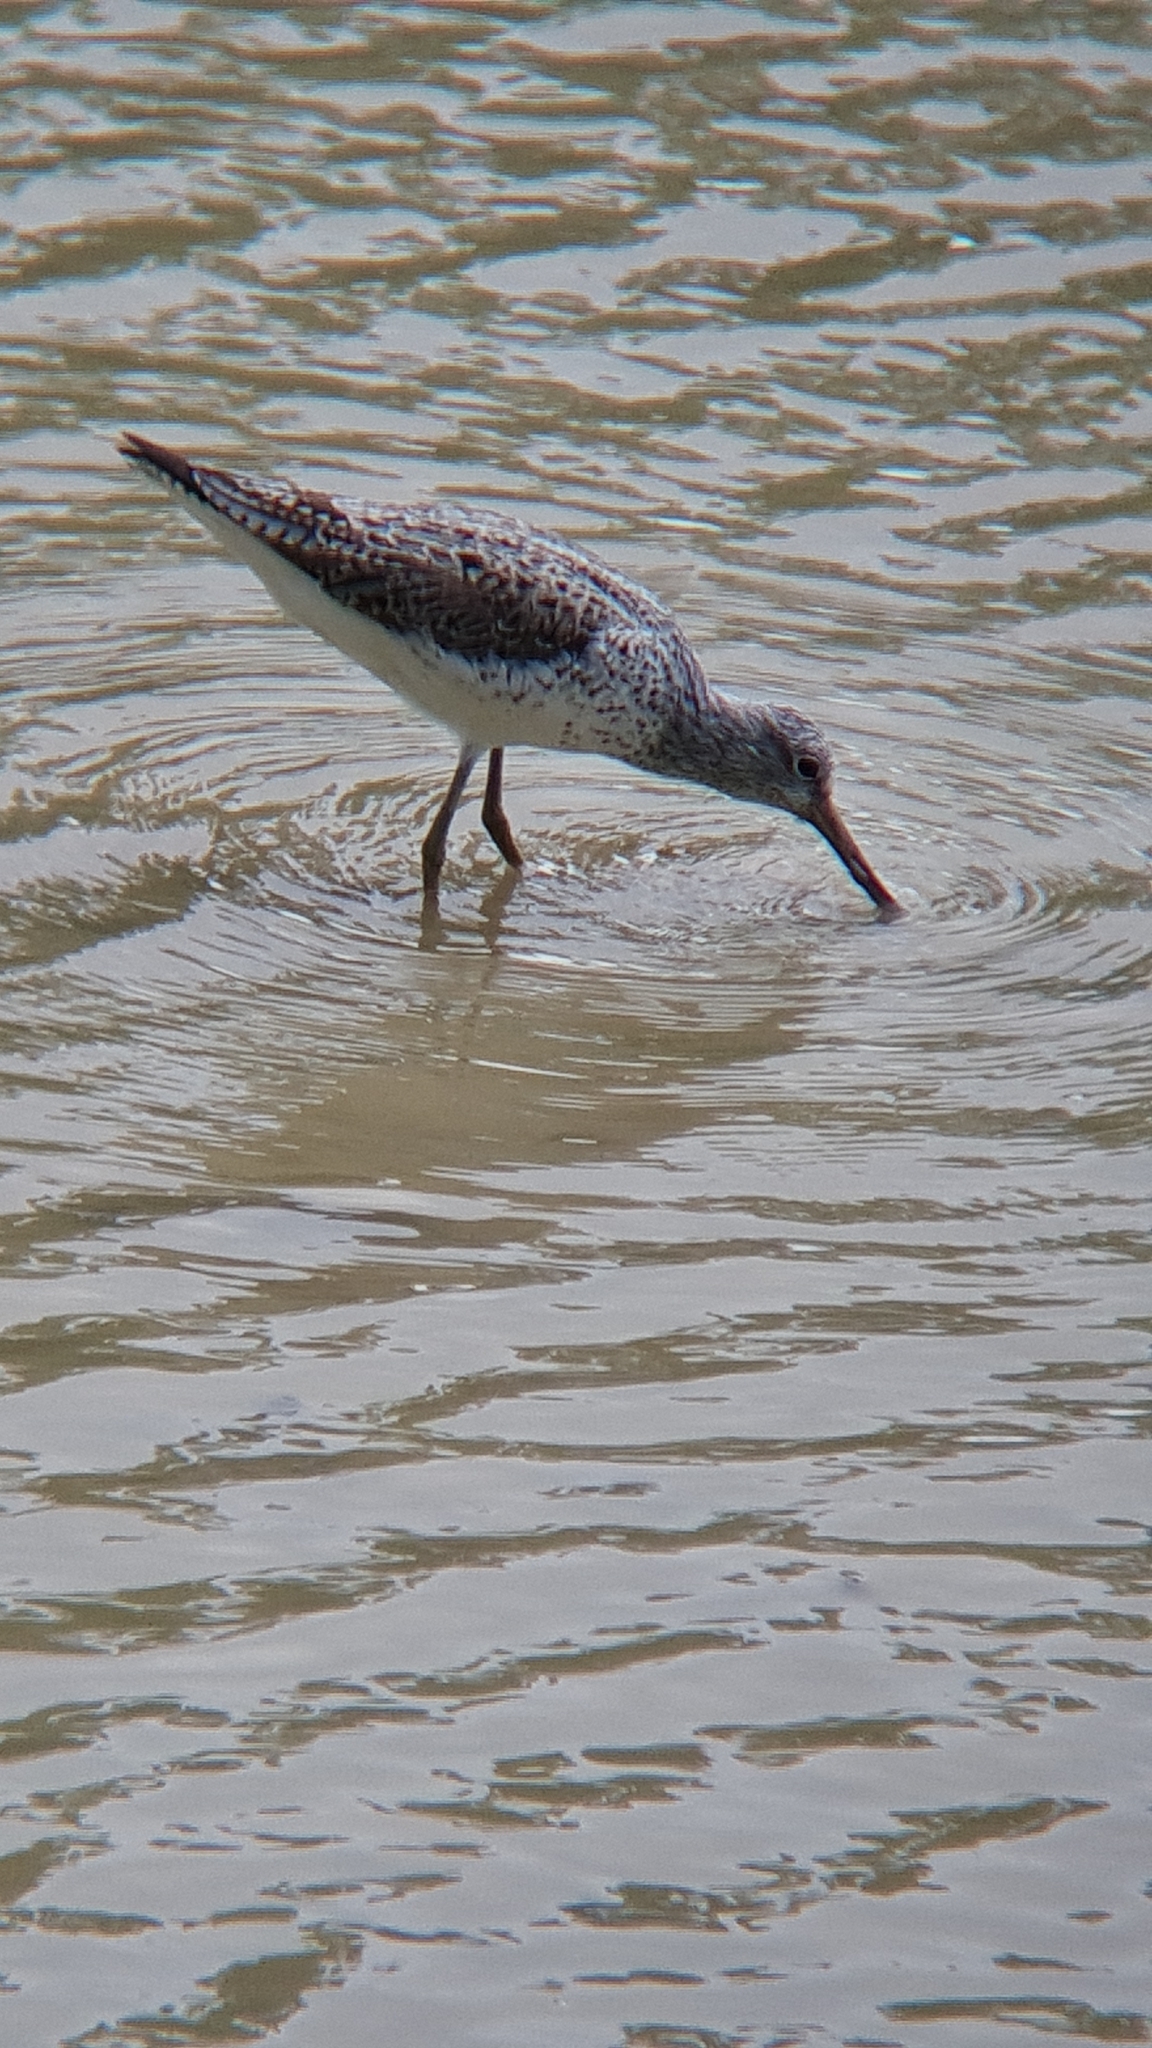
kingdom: Animalia
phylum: Chordata
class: Aves
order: Charadriiformes
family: Scolopacidae
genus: Tringa
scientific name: Tringa nebularia
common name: Common greenshank
